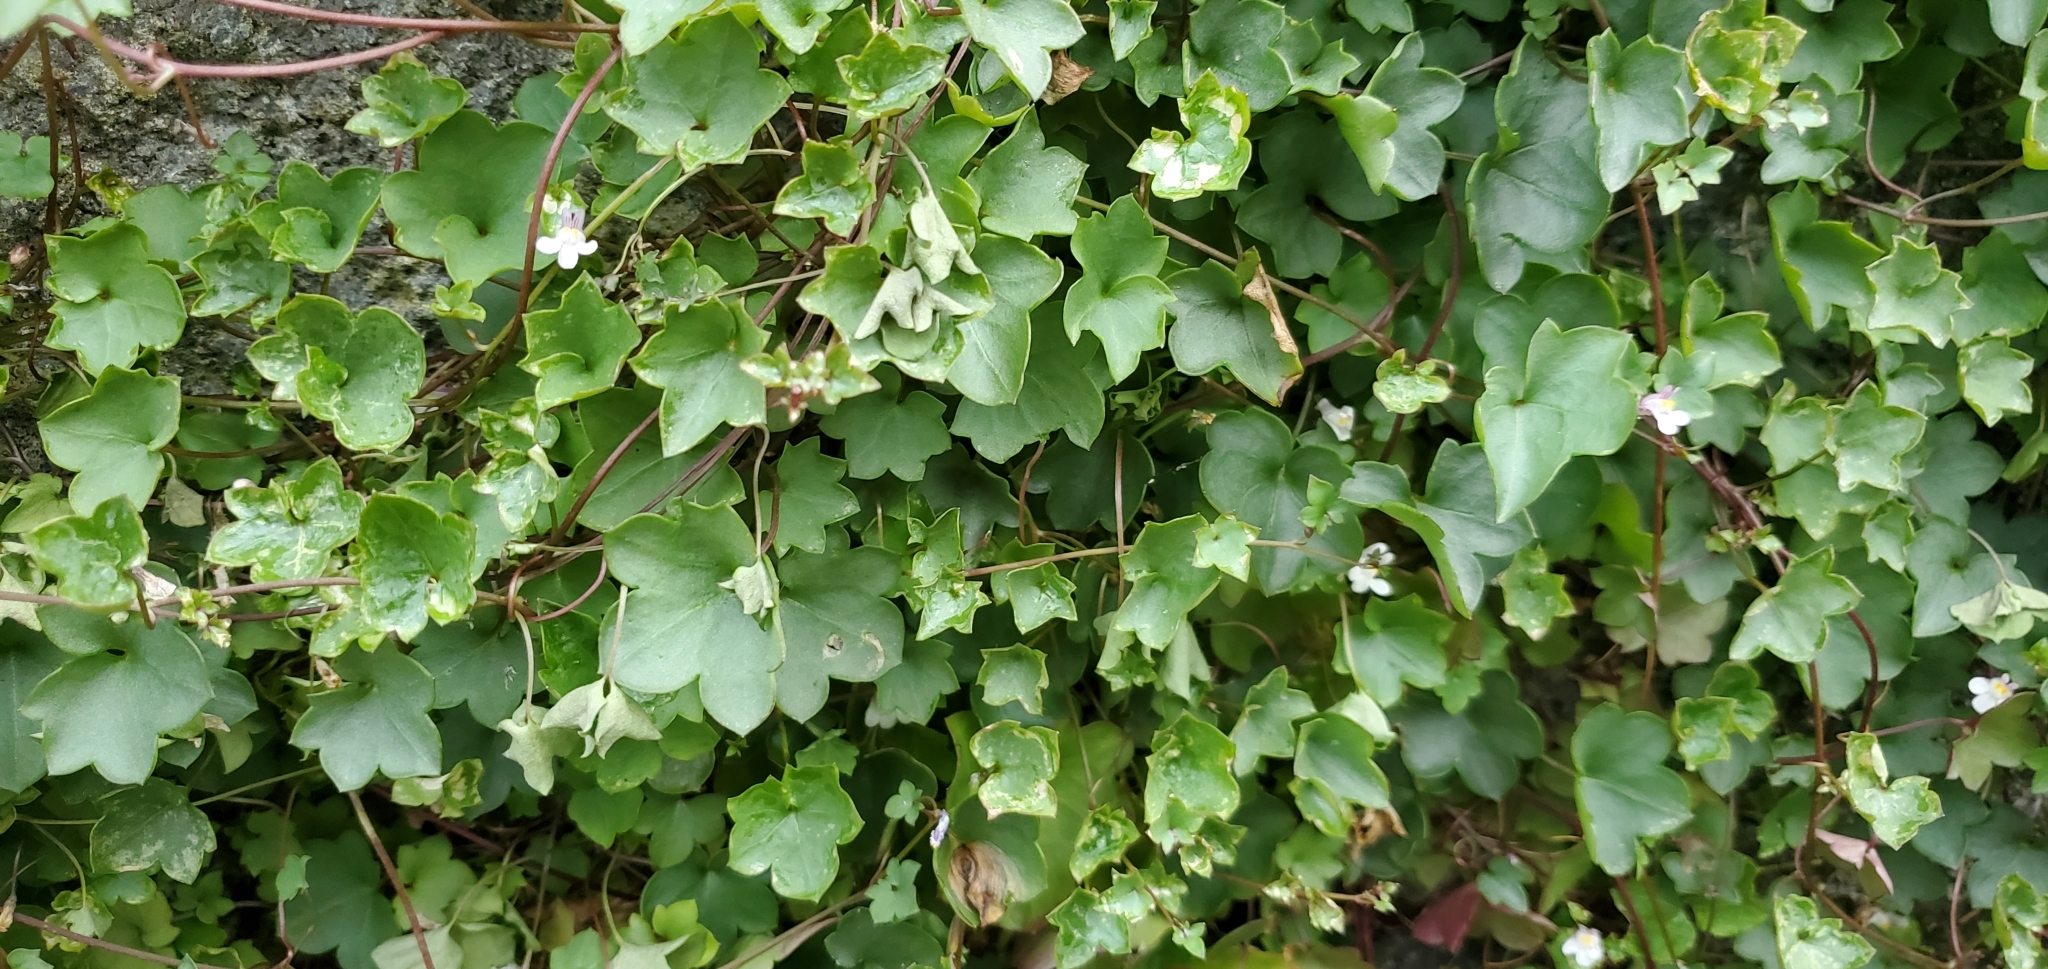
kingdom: Plantae
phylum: Tracheophyta
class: Magnoliopsida
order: Lamiales
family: Plantaginaceae
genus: Cymbalaria
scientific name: Cymbalaria muralis
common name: Ivy-leaved toadflax
